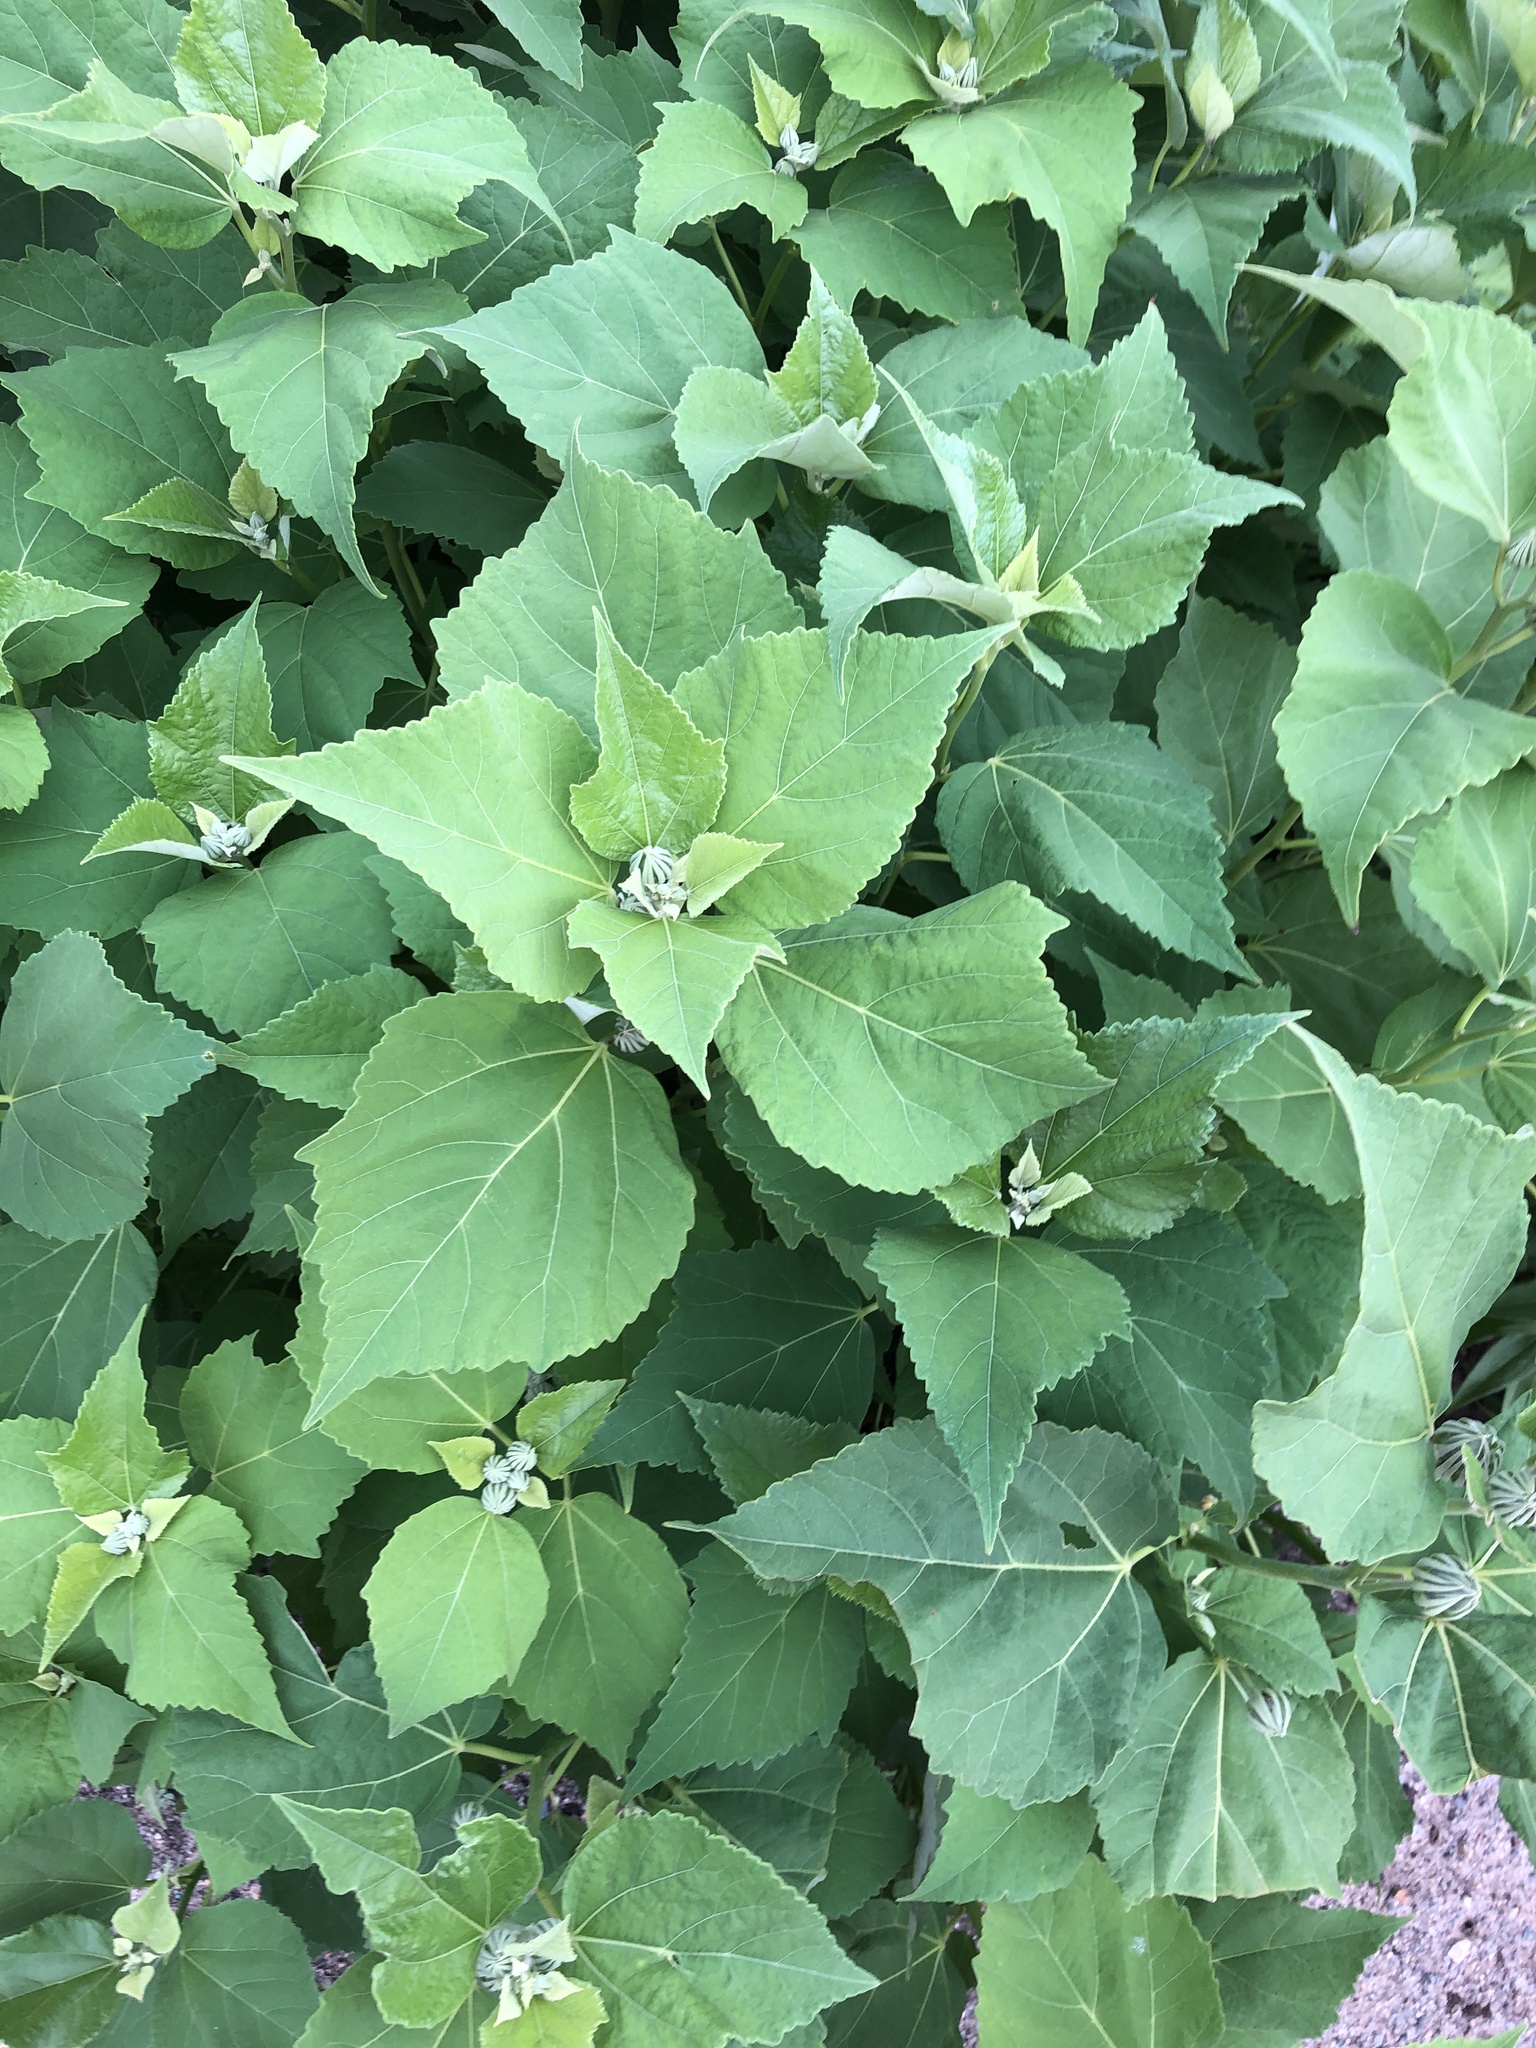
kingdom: Plantae
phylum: Tracheophyta
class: Magnoliopsida
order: Malvales
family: Malvaceae
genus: Hibiscus
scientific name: Hibiscus moscheutos
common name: Common rose-mallow
